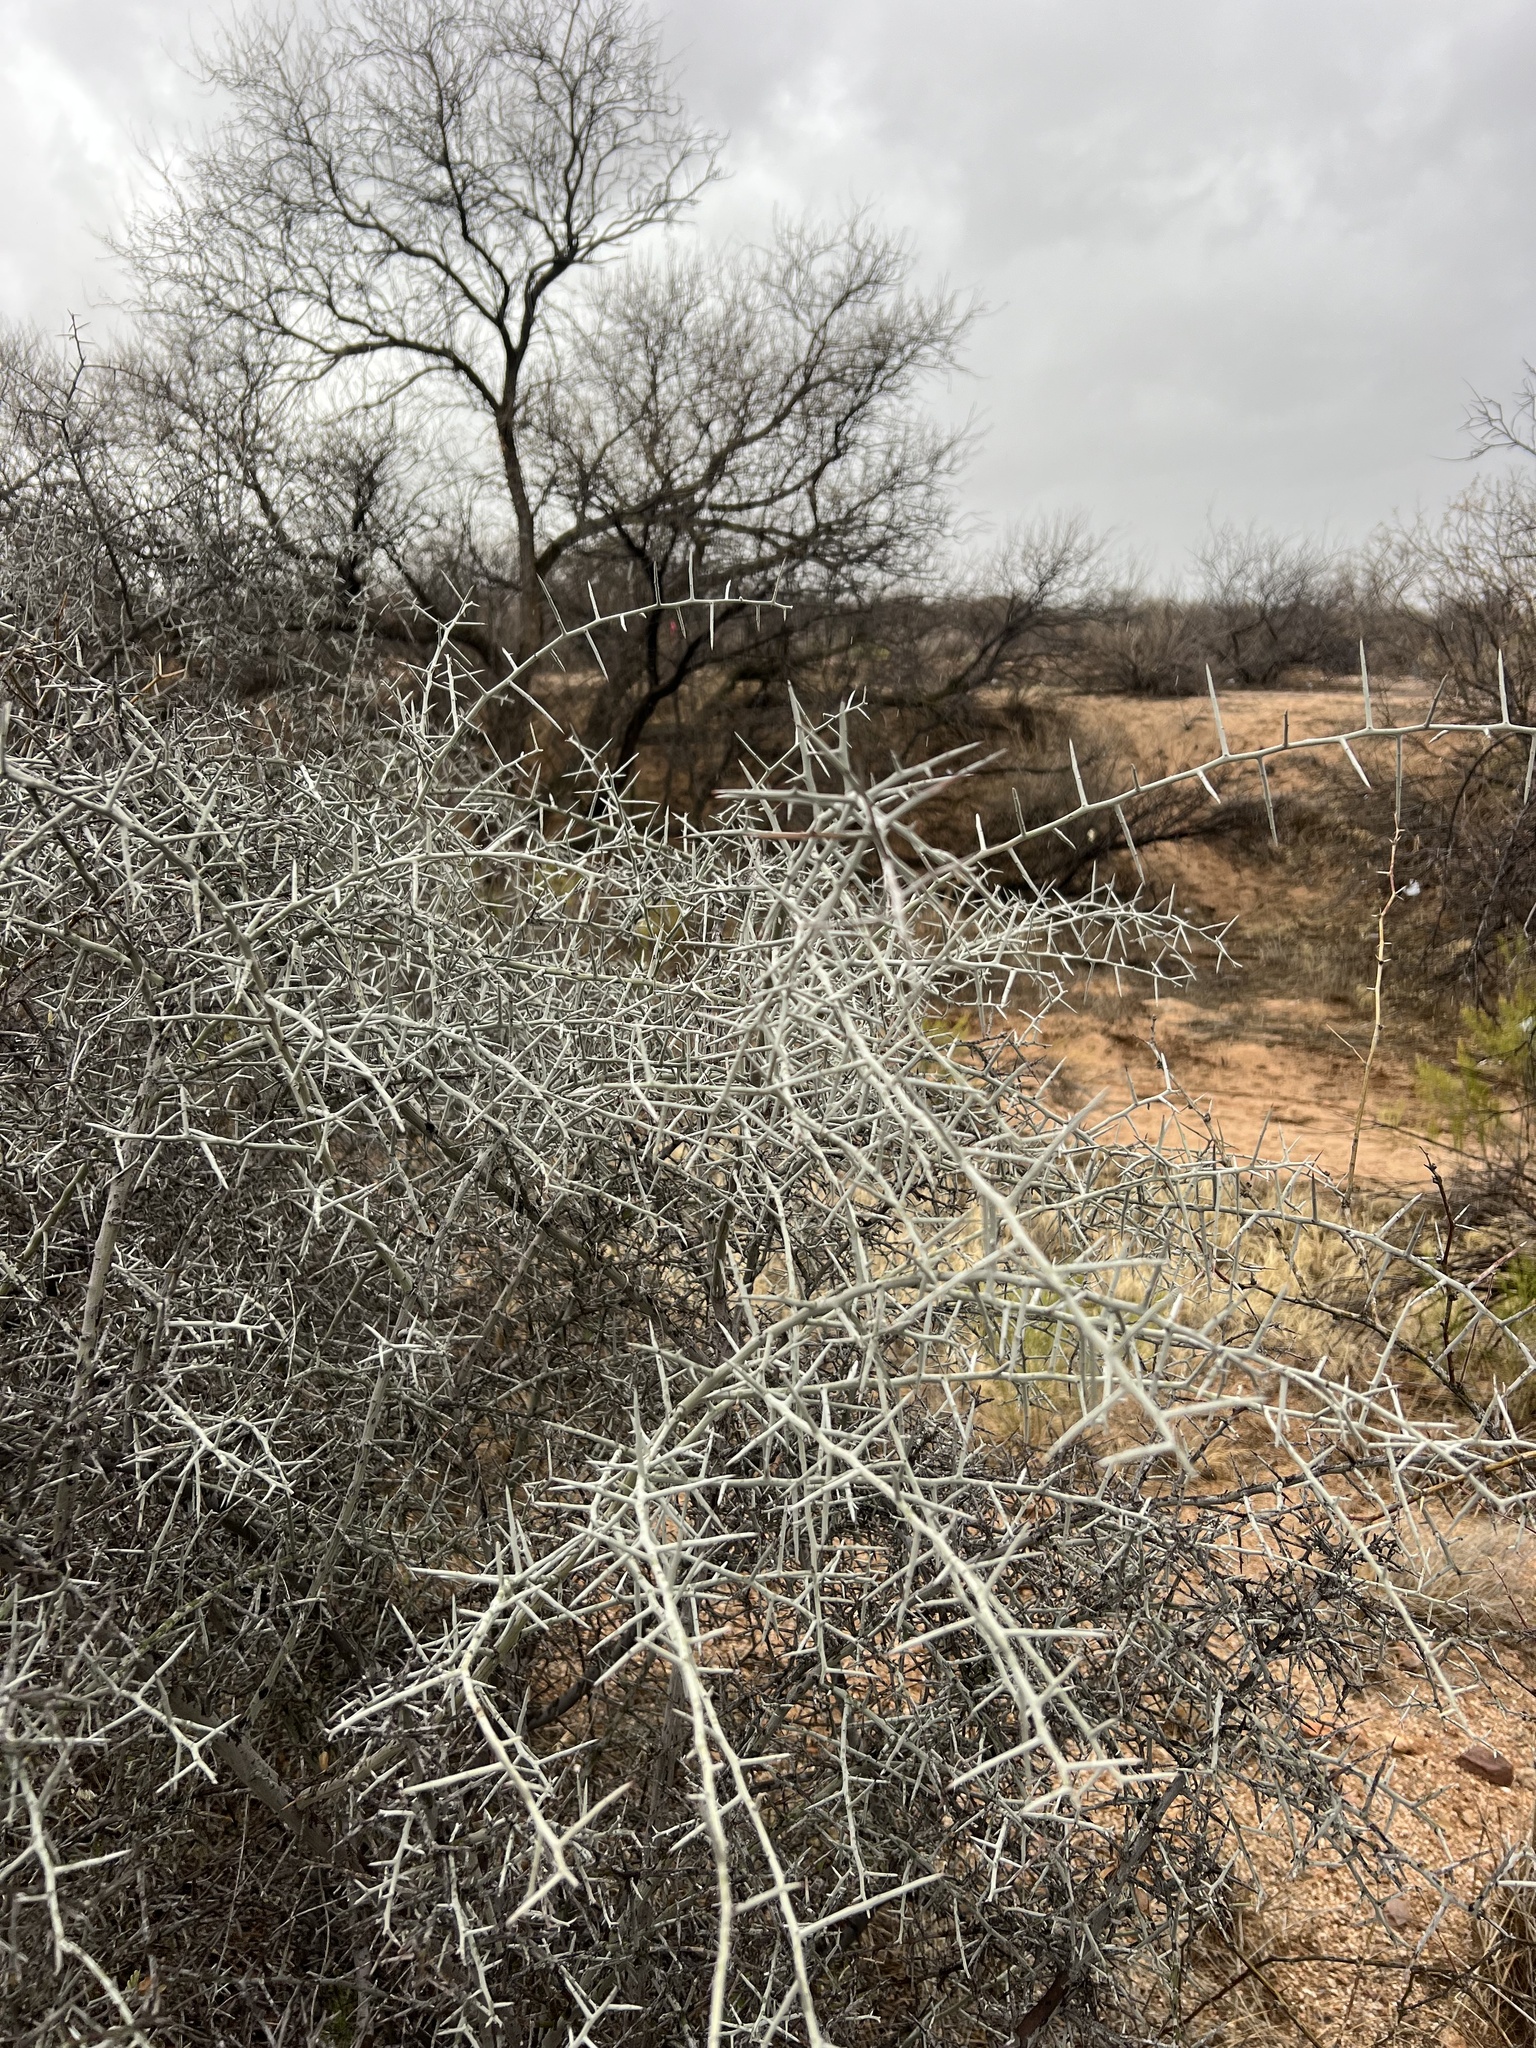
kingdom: Plantae
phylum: Tracheophyta
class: Magnoliopsida
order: Rosales
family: Rhamnaceae
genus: Sarcomphalus
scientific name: Sarcomphalus obtusifolius
